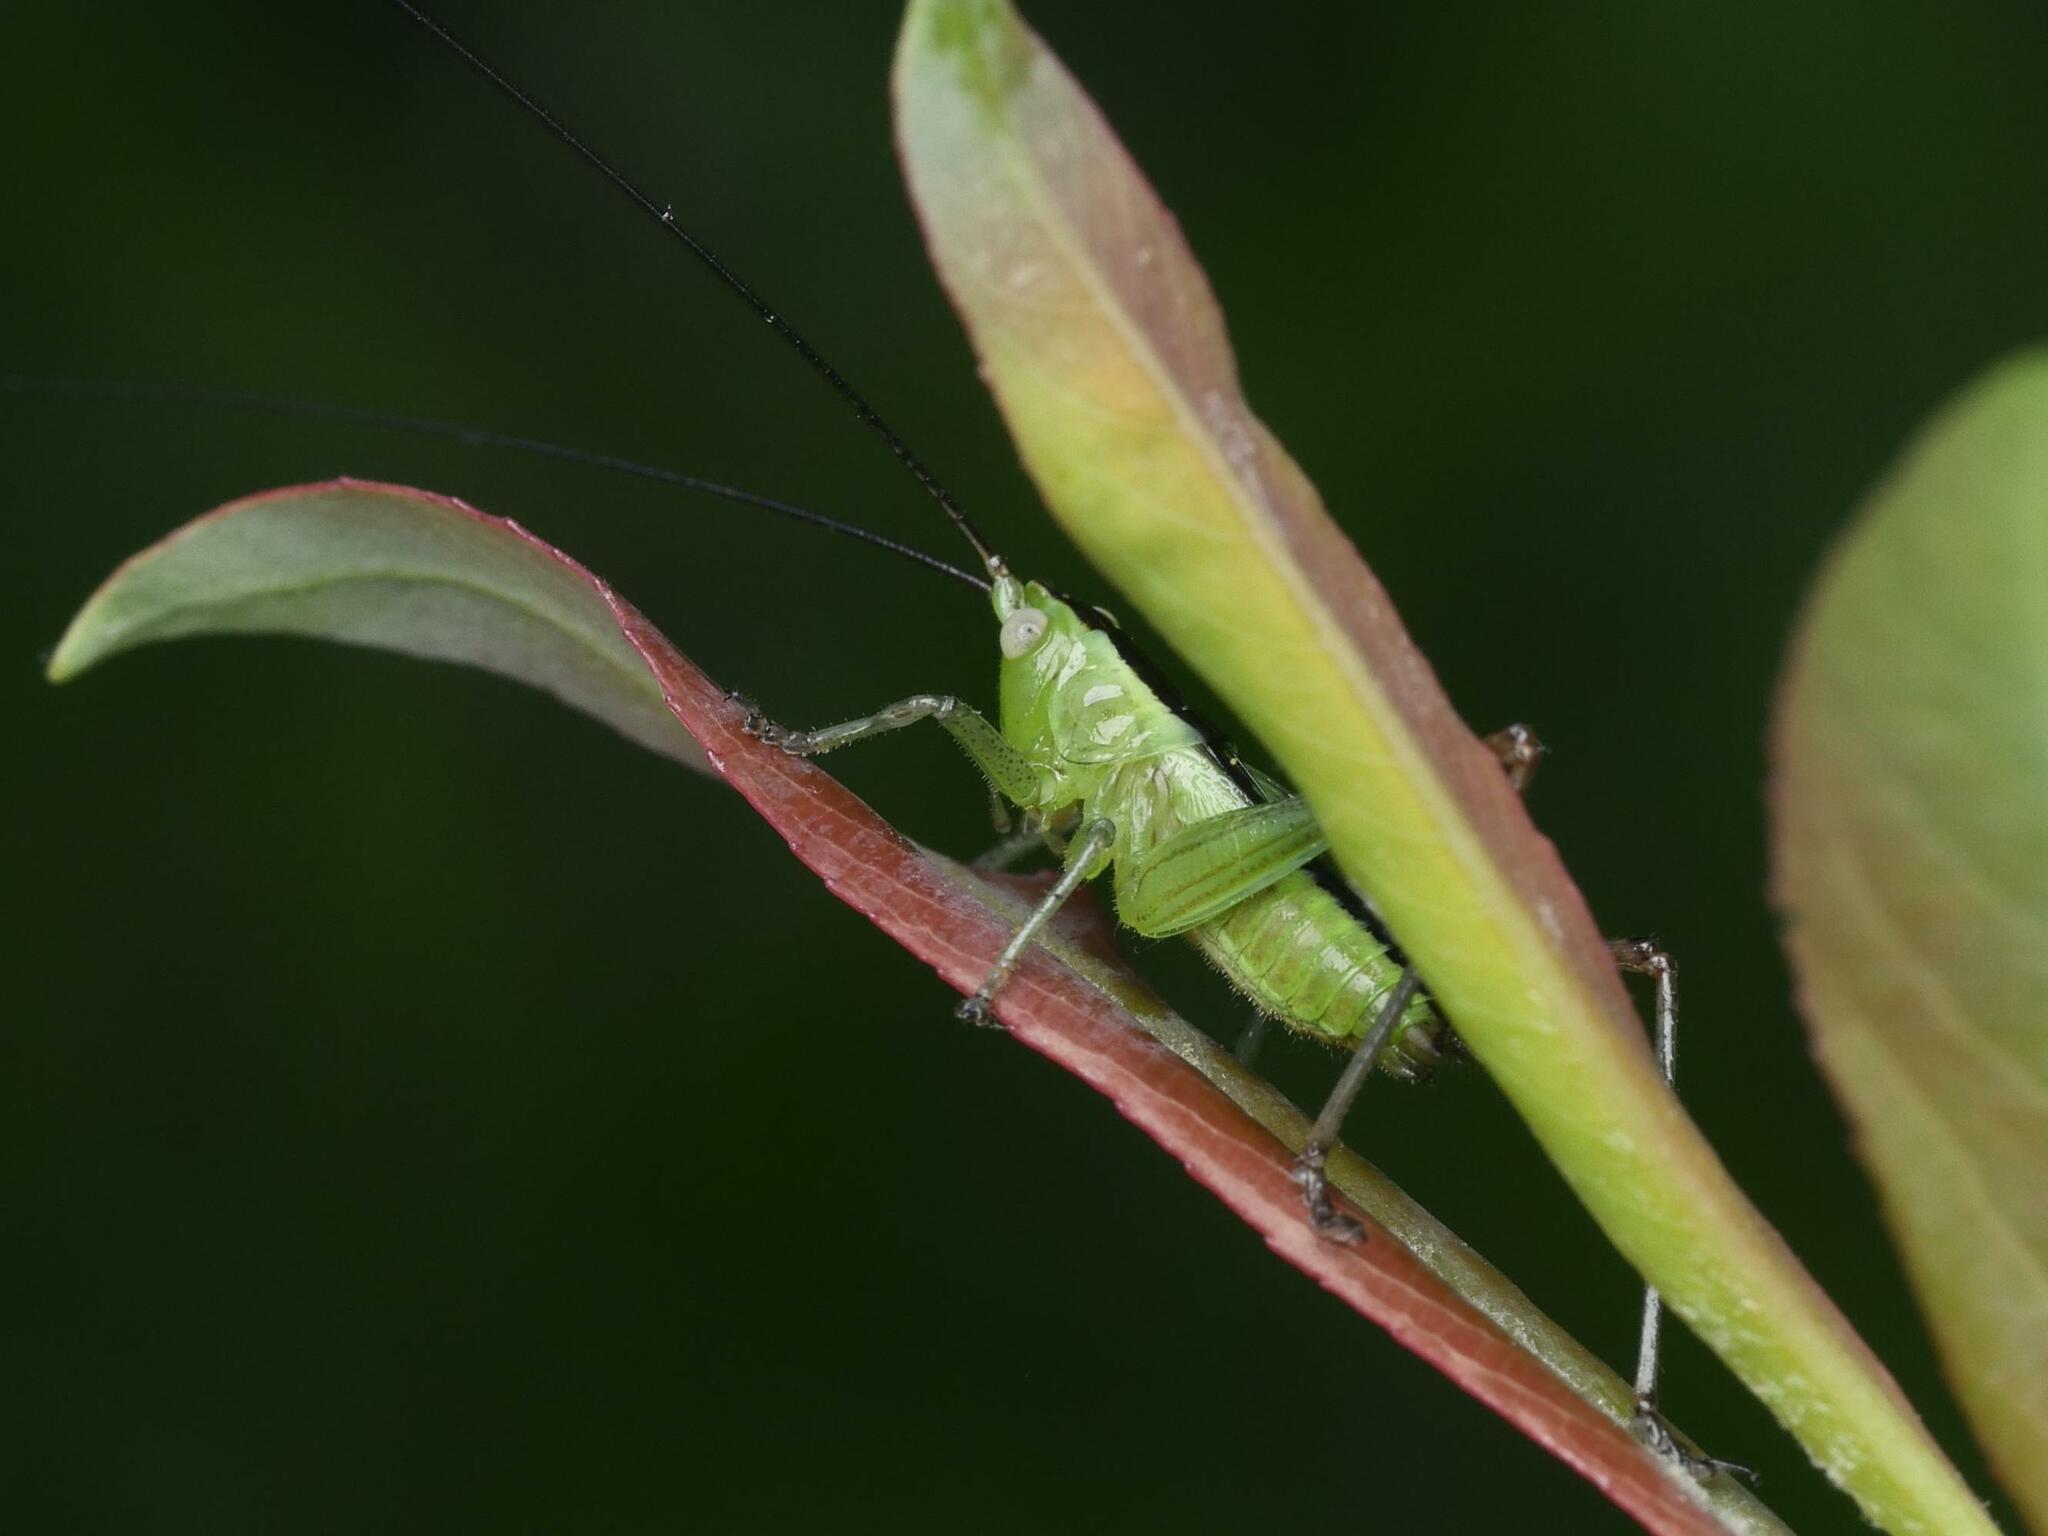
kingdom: Animalia
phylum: Arthropoda
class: Insecta
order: Orthoptera
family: Tettigoniidae
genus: Conocephalus
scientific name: Conocephalus fuscus
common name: Long-winged conehead
